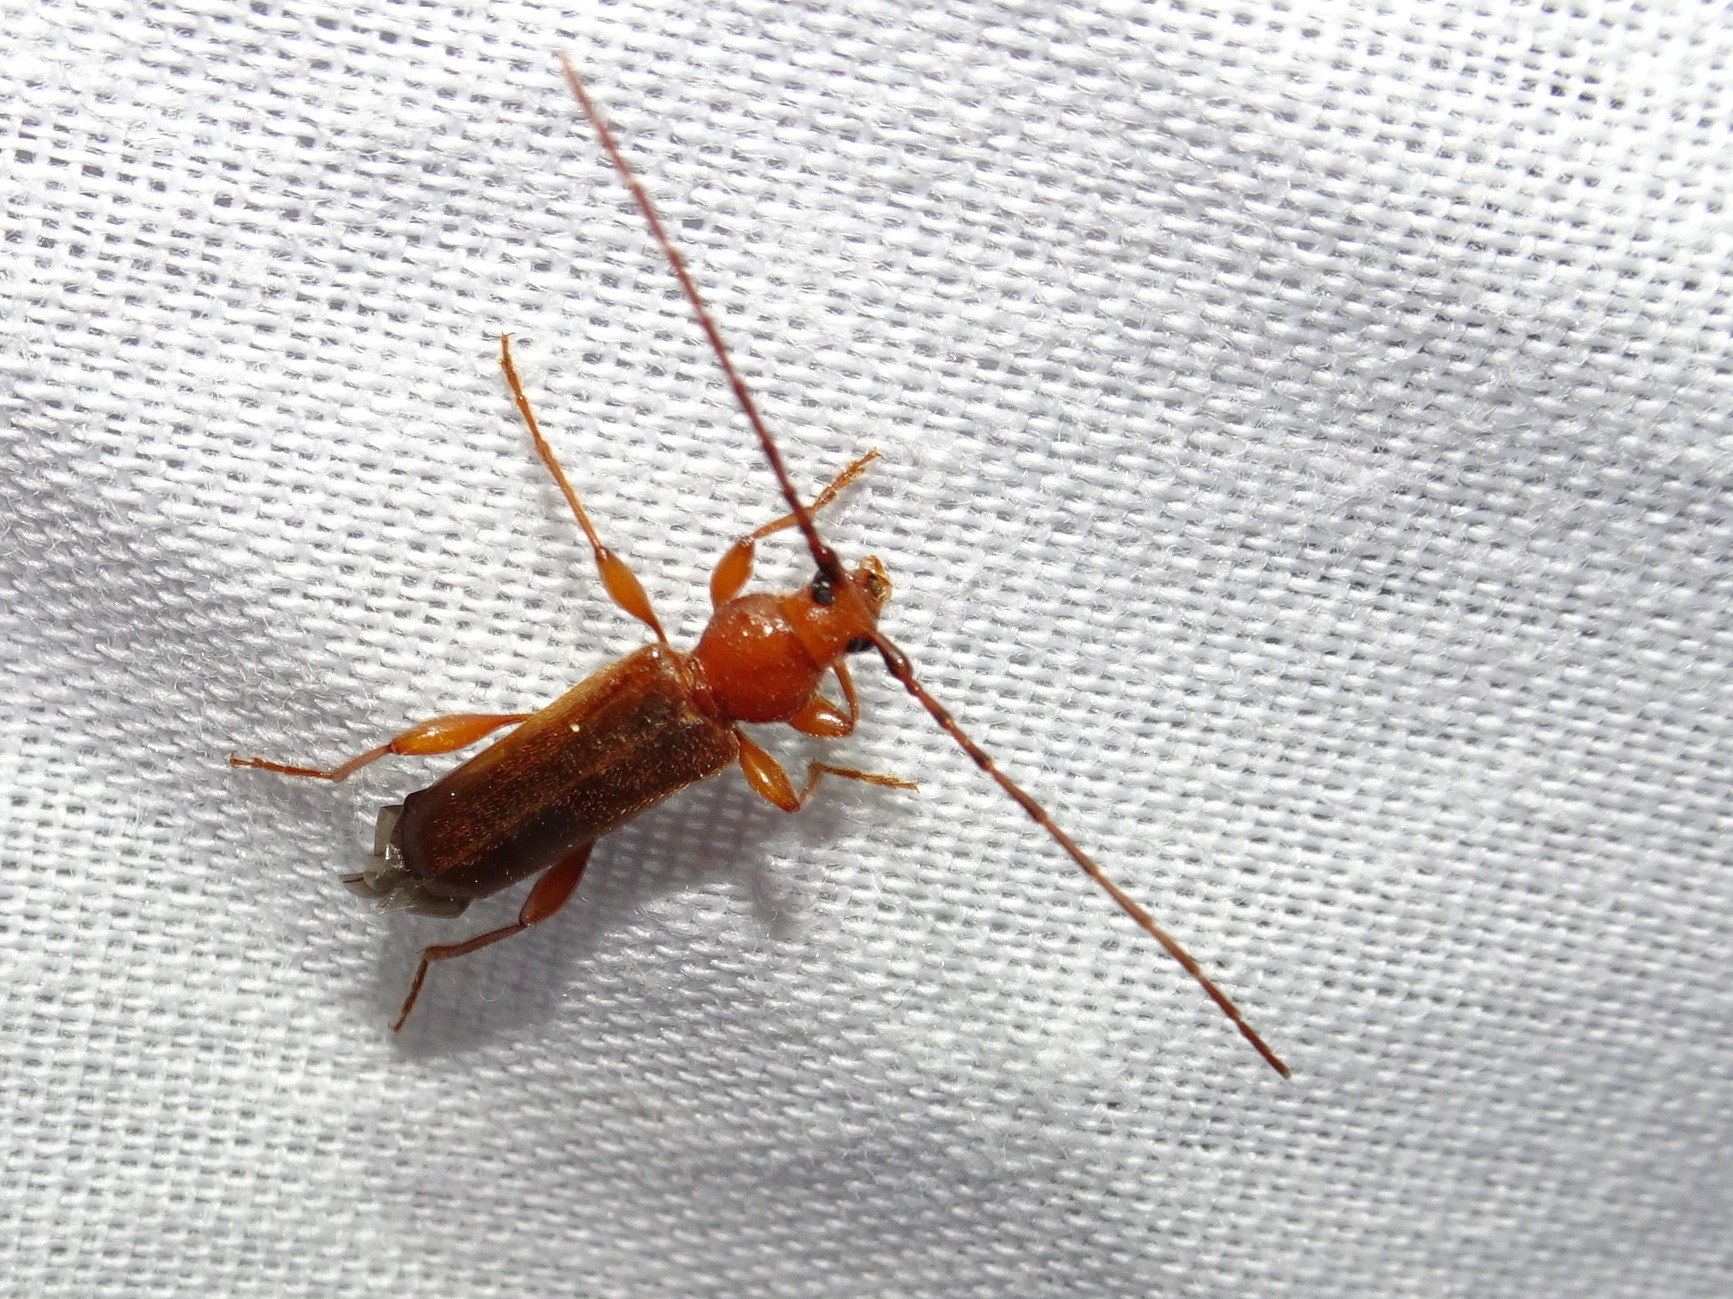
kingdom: Animalia
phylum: Arthropoda
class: Insecta
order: Coleoptera
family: Cerambycidae
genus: Phymatodes
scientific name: Phymatodes testaceus
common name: Long-horned beetle
